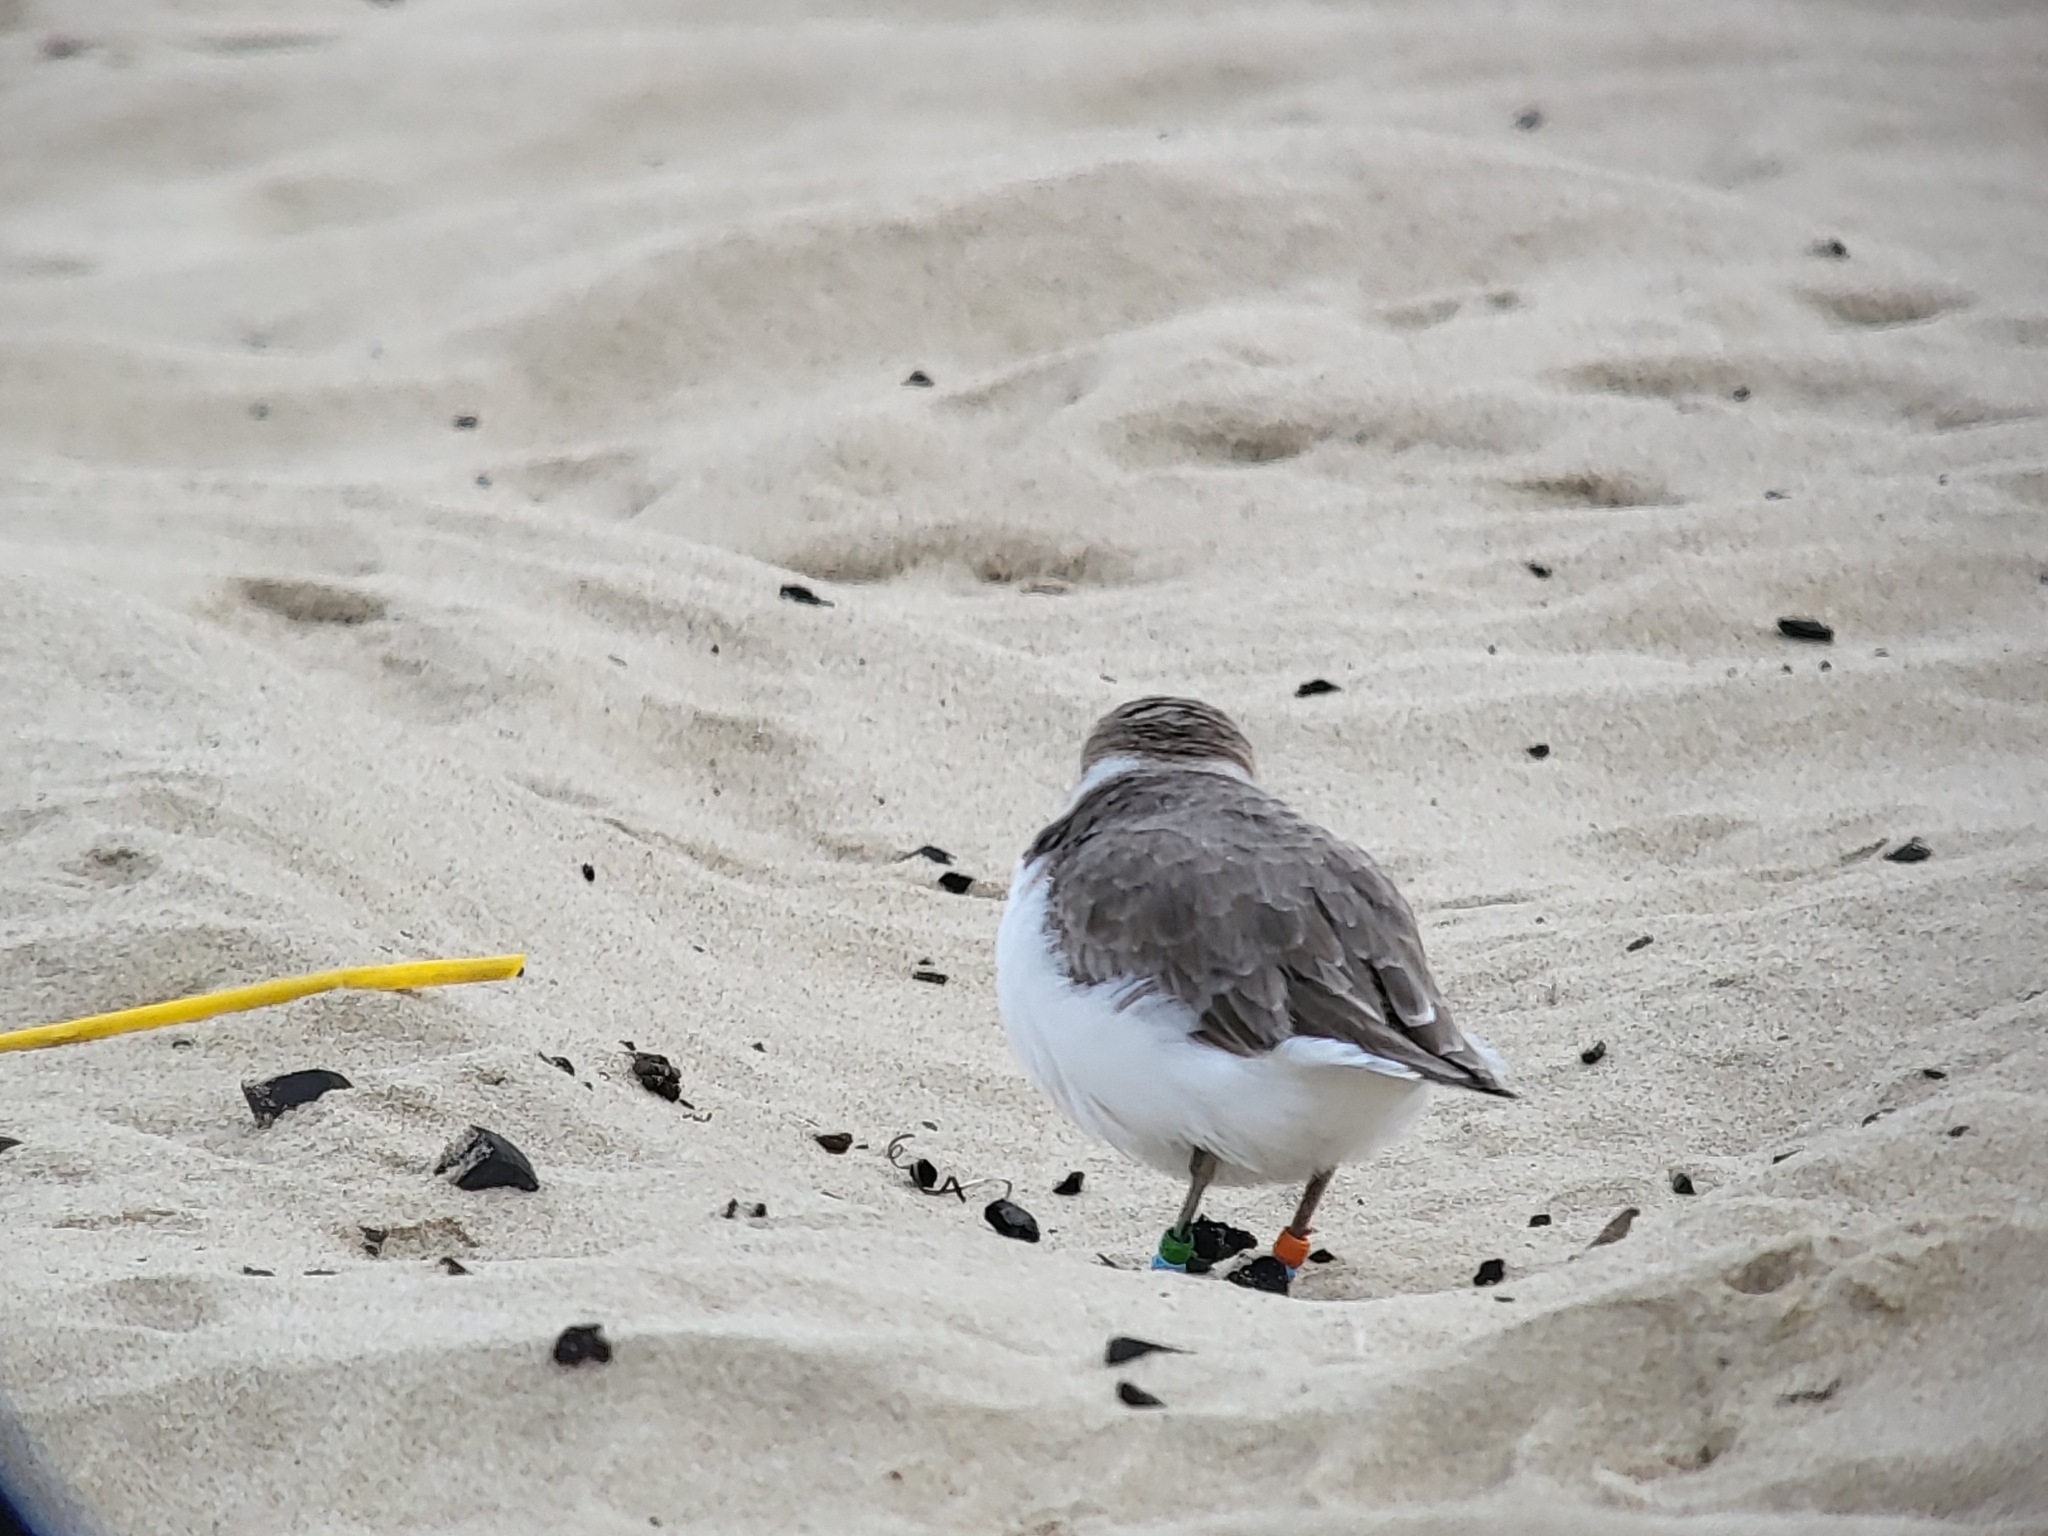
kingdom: Animalia
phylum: Chordata
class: Aves
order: Charadriiformes
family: Charadriidae
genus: Anarhynchus
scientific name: Anarhynchus
